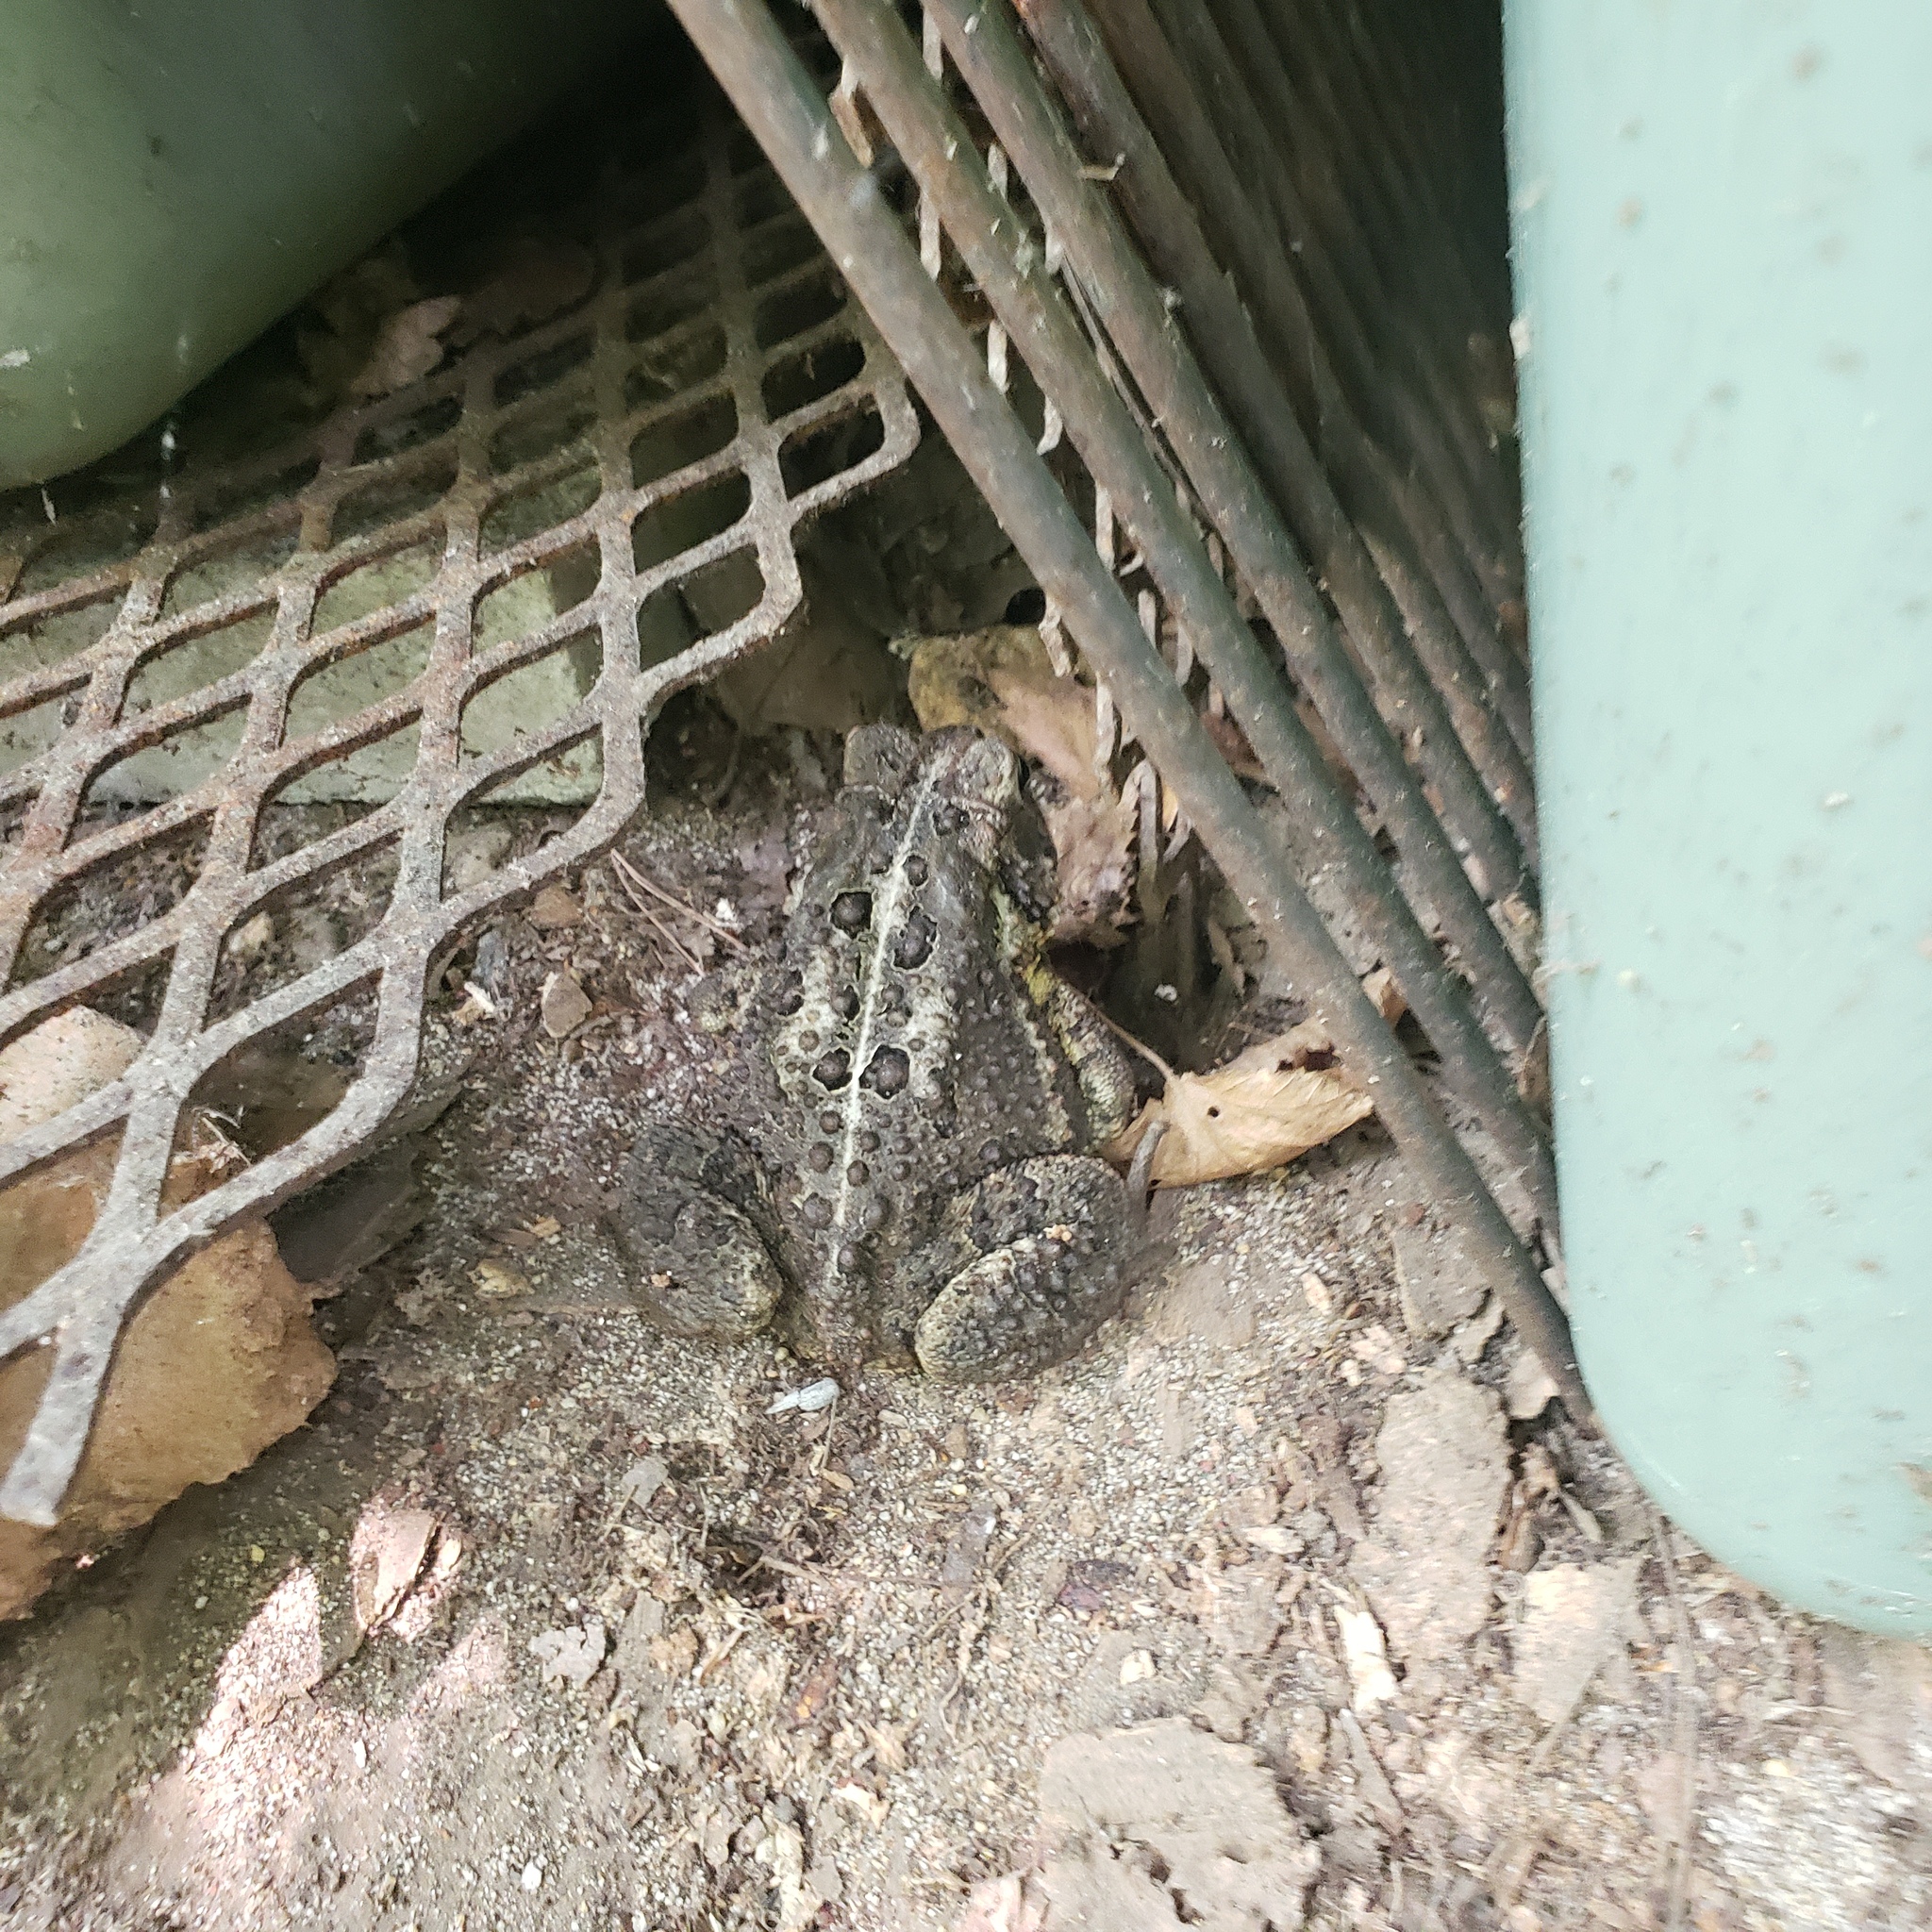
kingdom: Animalia
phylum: Chordata
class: Amphibia
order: Anura
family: Bufonidae
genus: Anaxyrus
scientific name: Anaxyrus americanus
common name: American toad
